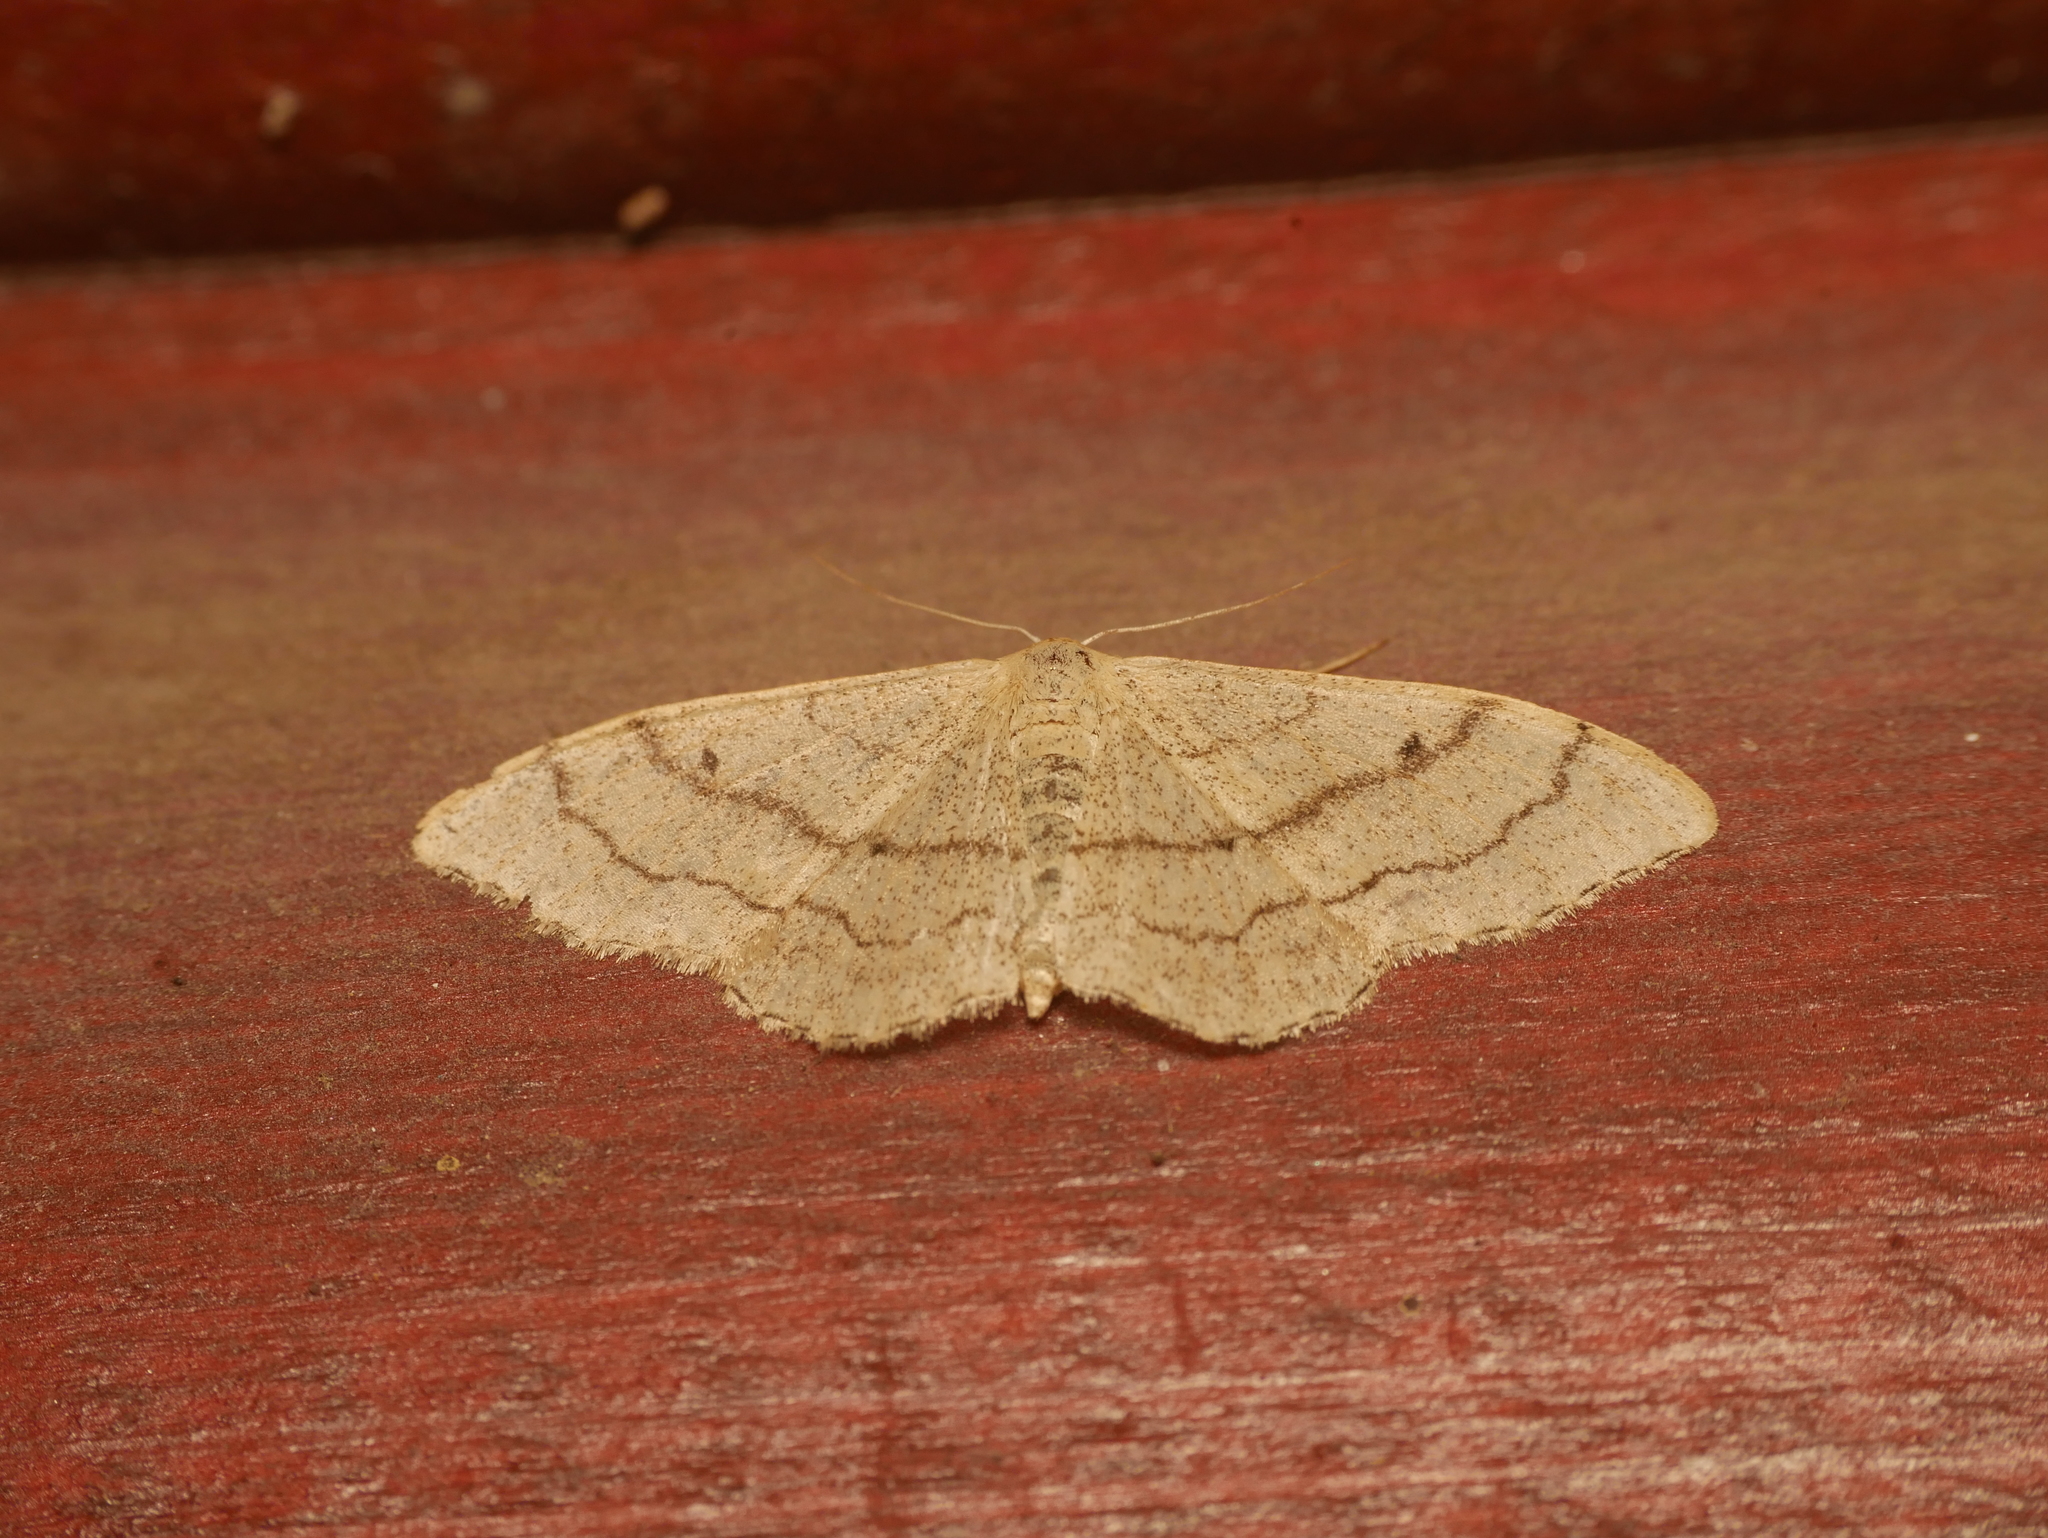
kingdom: Animalia
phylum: Arthropoda
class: Insecta
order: Lepidoptera
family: Geometridae
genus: Idaea
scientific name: Idaea aversata
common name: Riband wave
